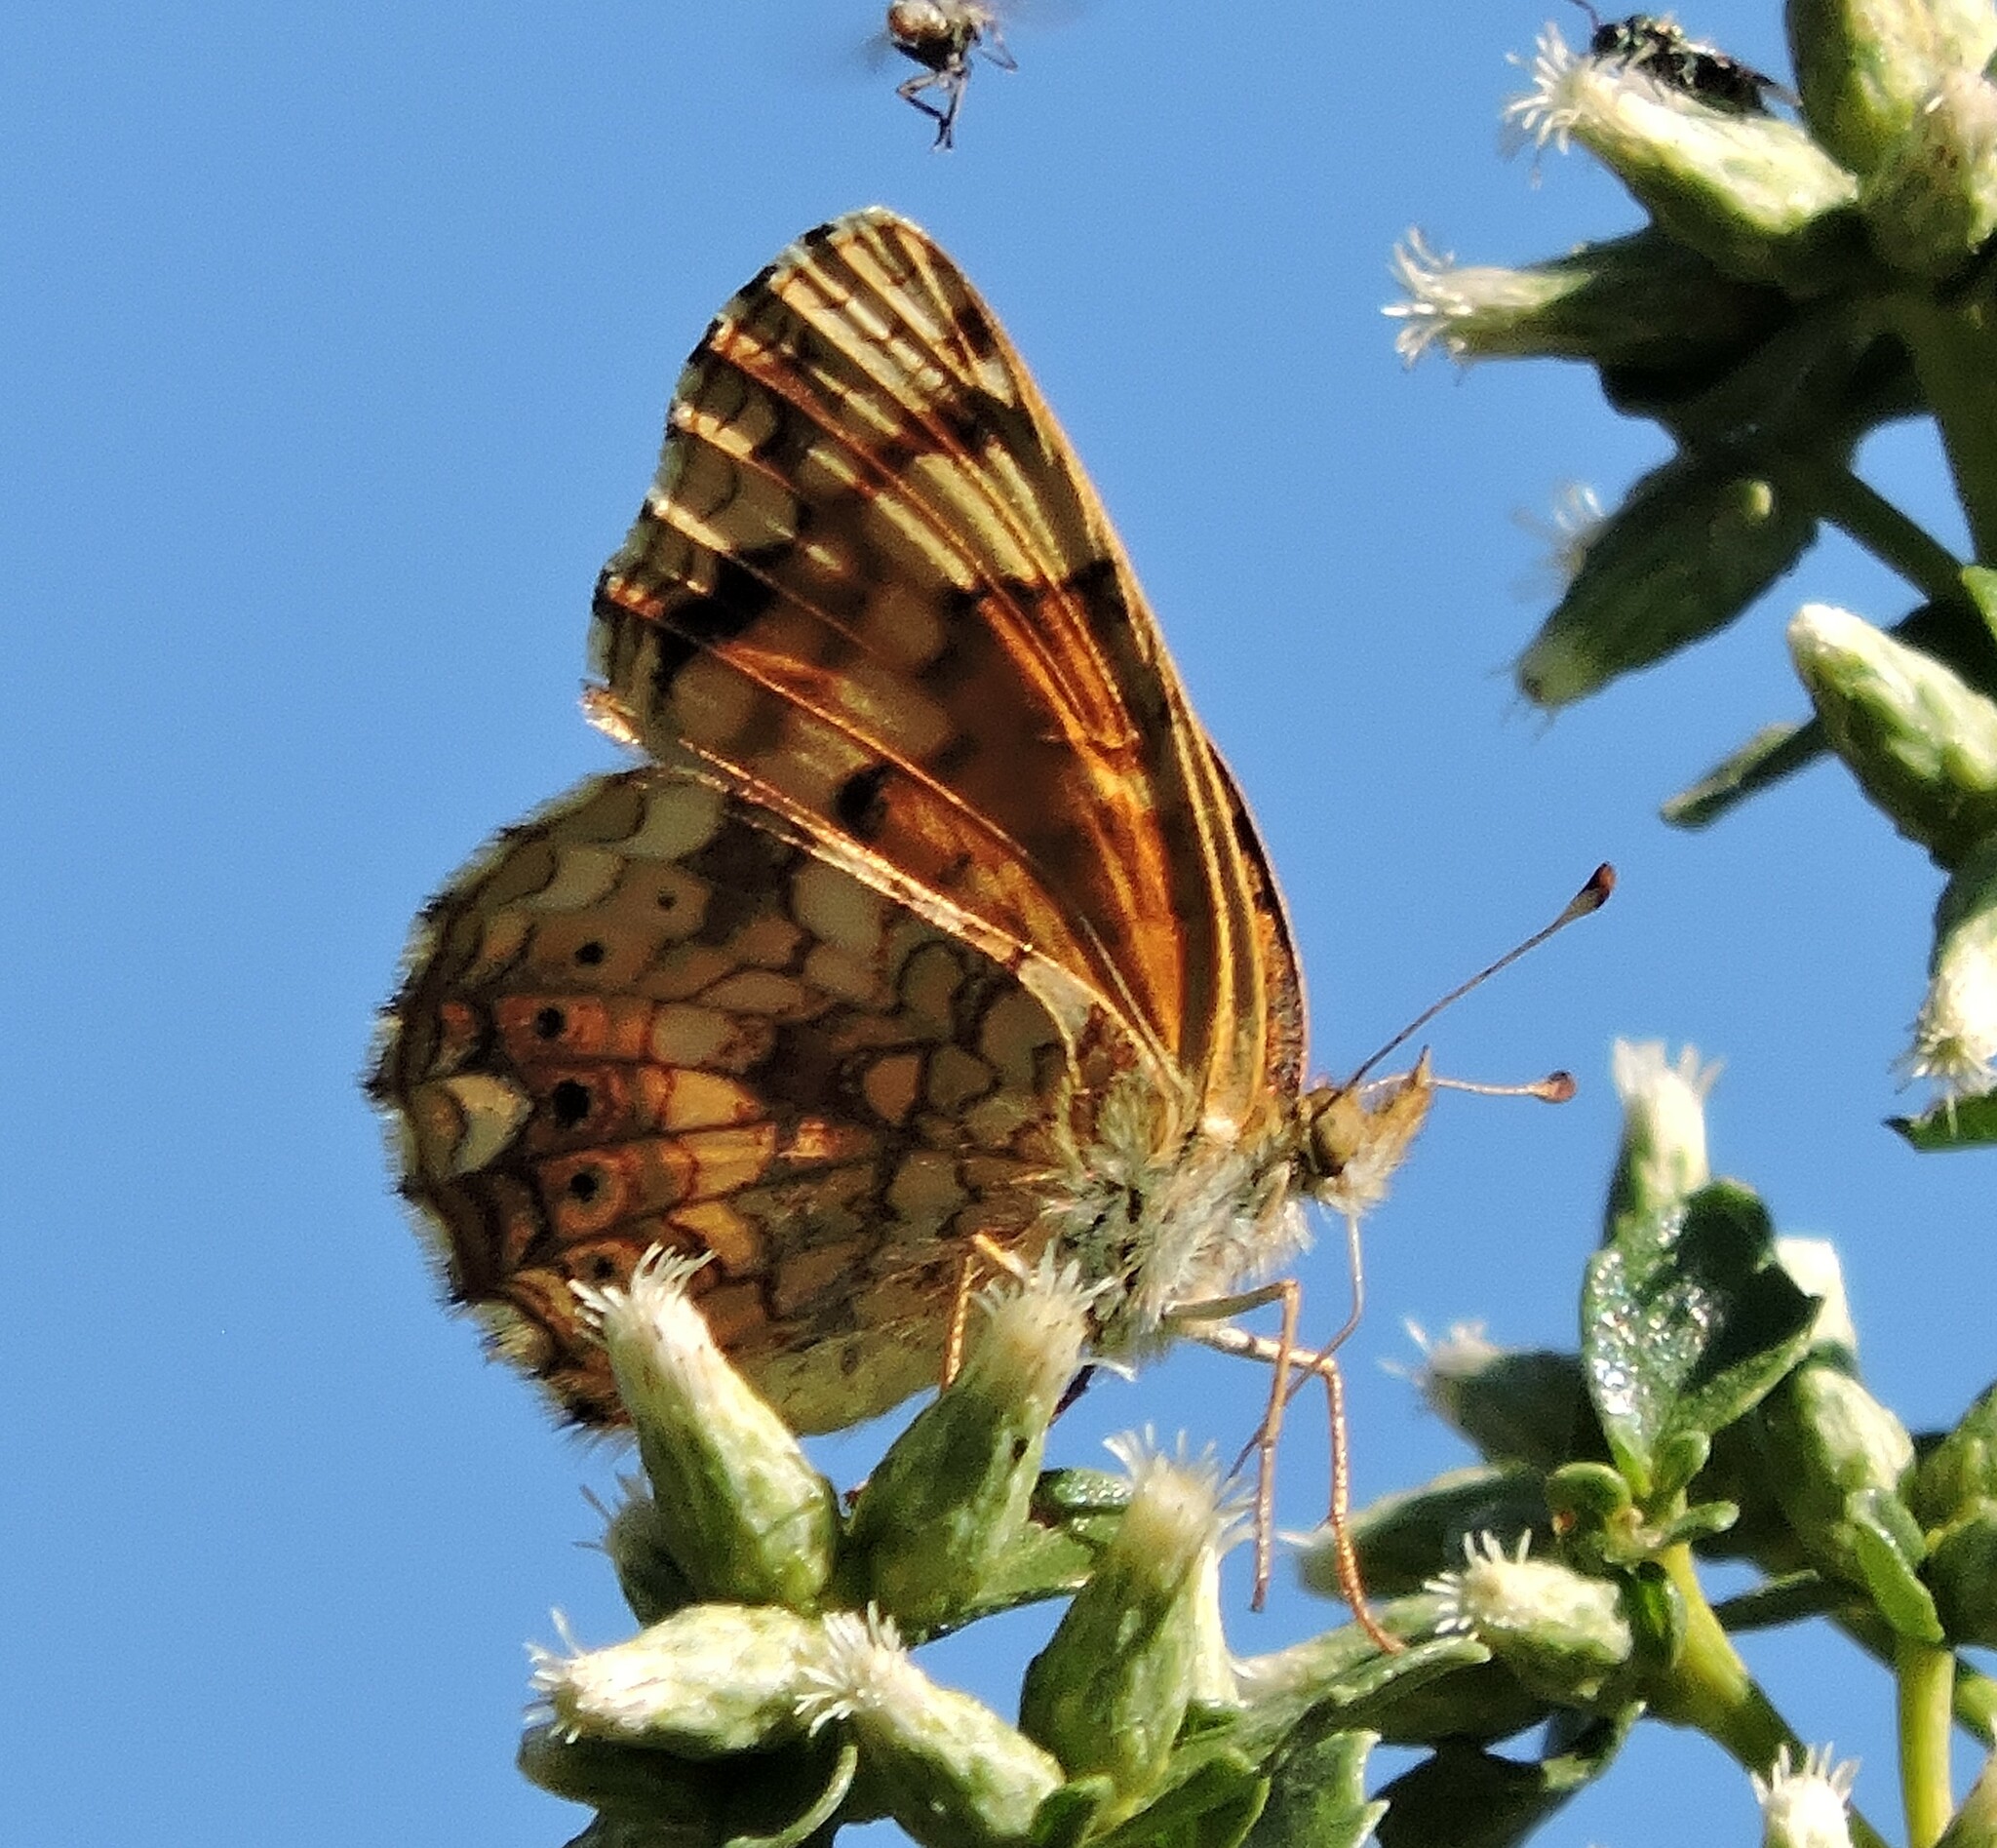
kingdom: Animalia
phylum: Arthropoda
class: Insecta
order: Lepidoptera
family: Nymphalidae
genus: Eresia
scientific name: Eresia aveyrona
